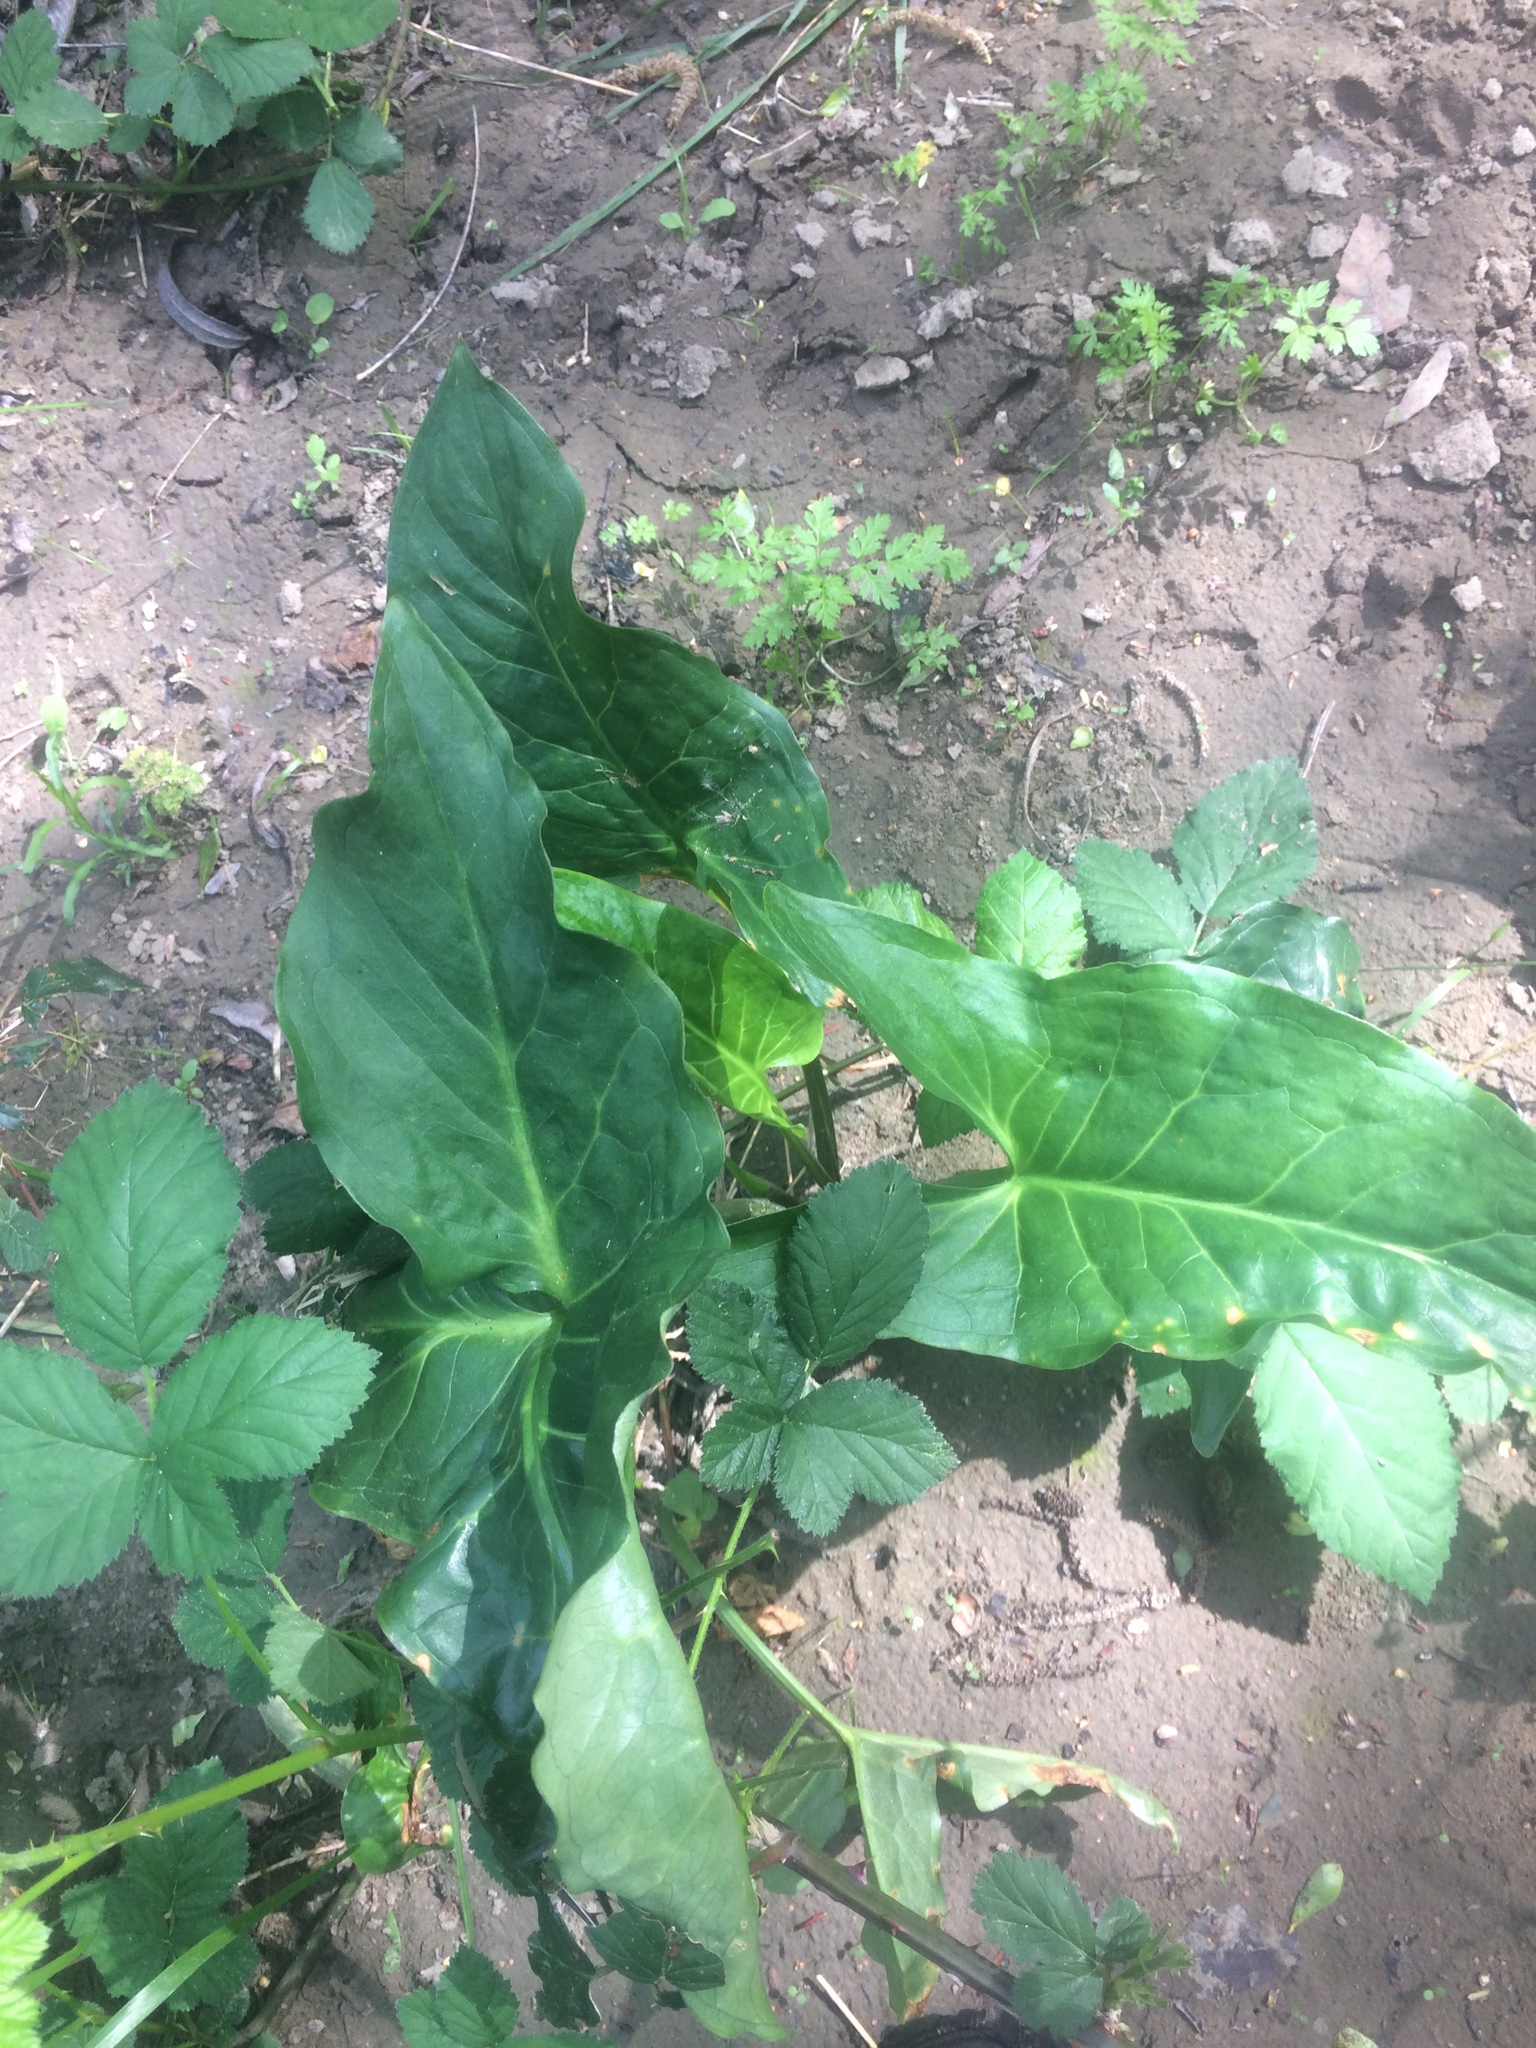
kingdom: Plantae
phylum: Tracheophyta
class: Liliopsida
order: Alismatales
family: Araceae
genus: Arum
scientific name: Arum italicum
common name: Italian lords-and-ladies
